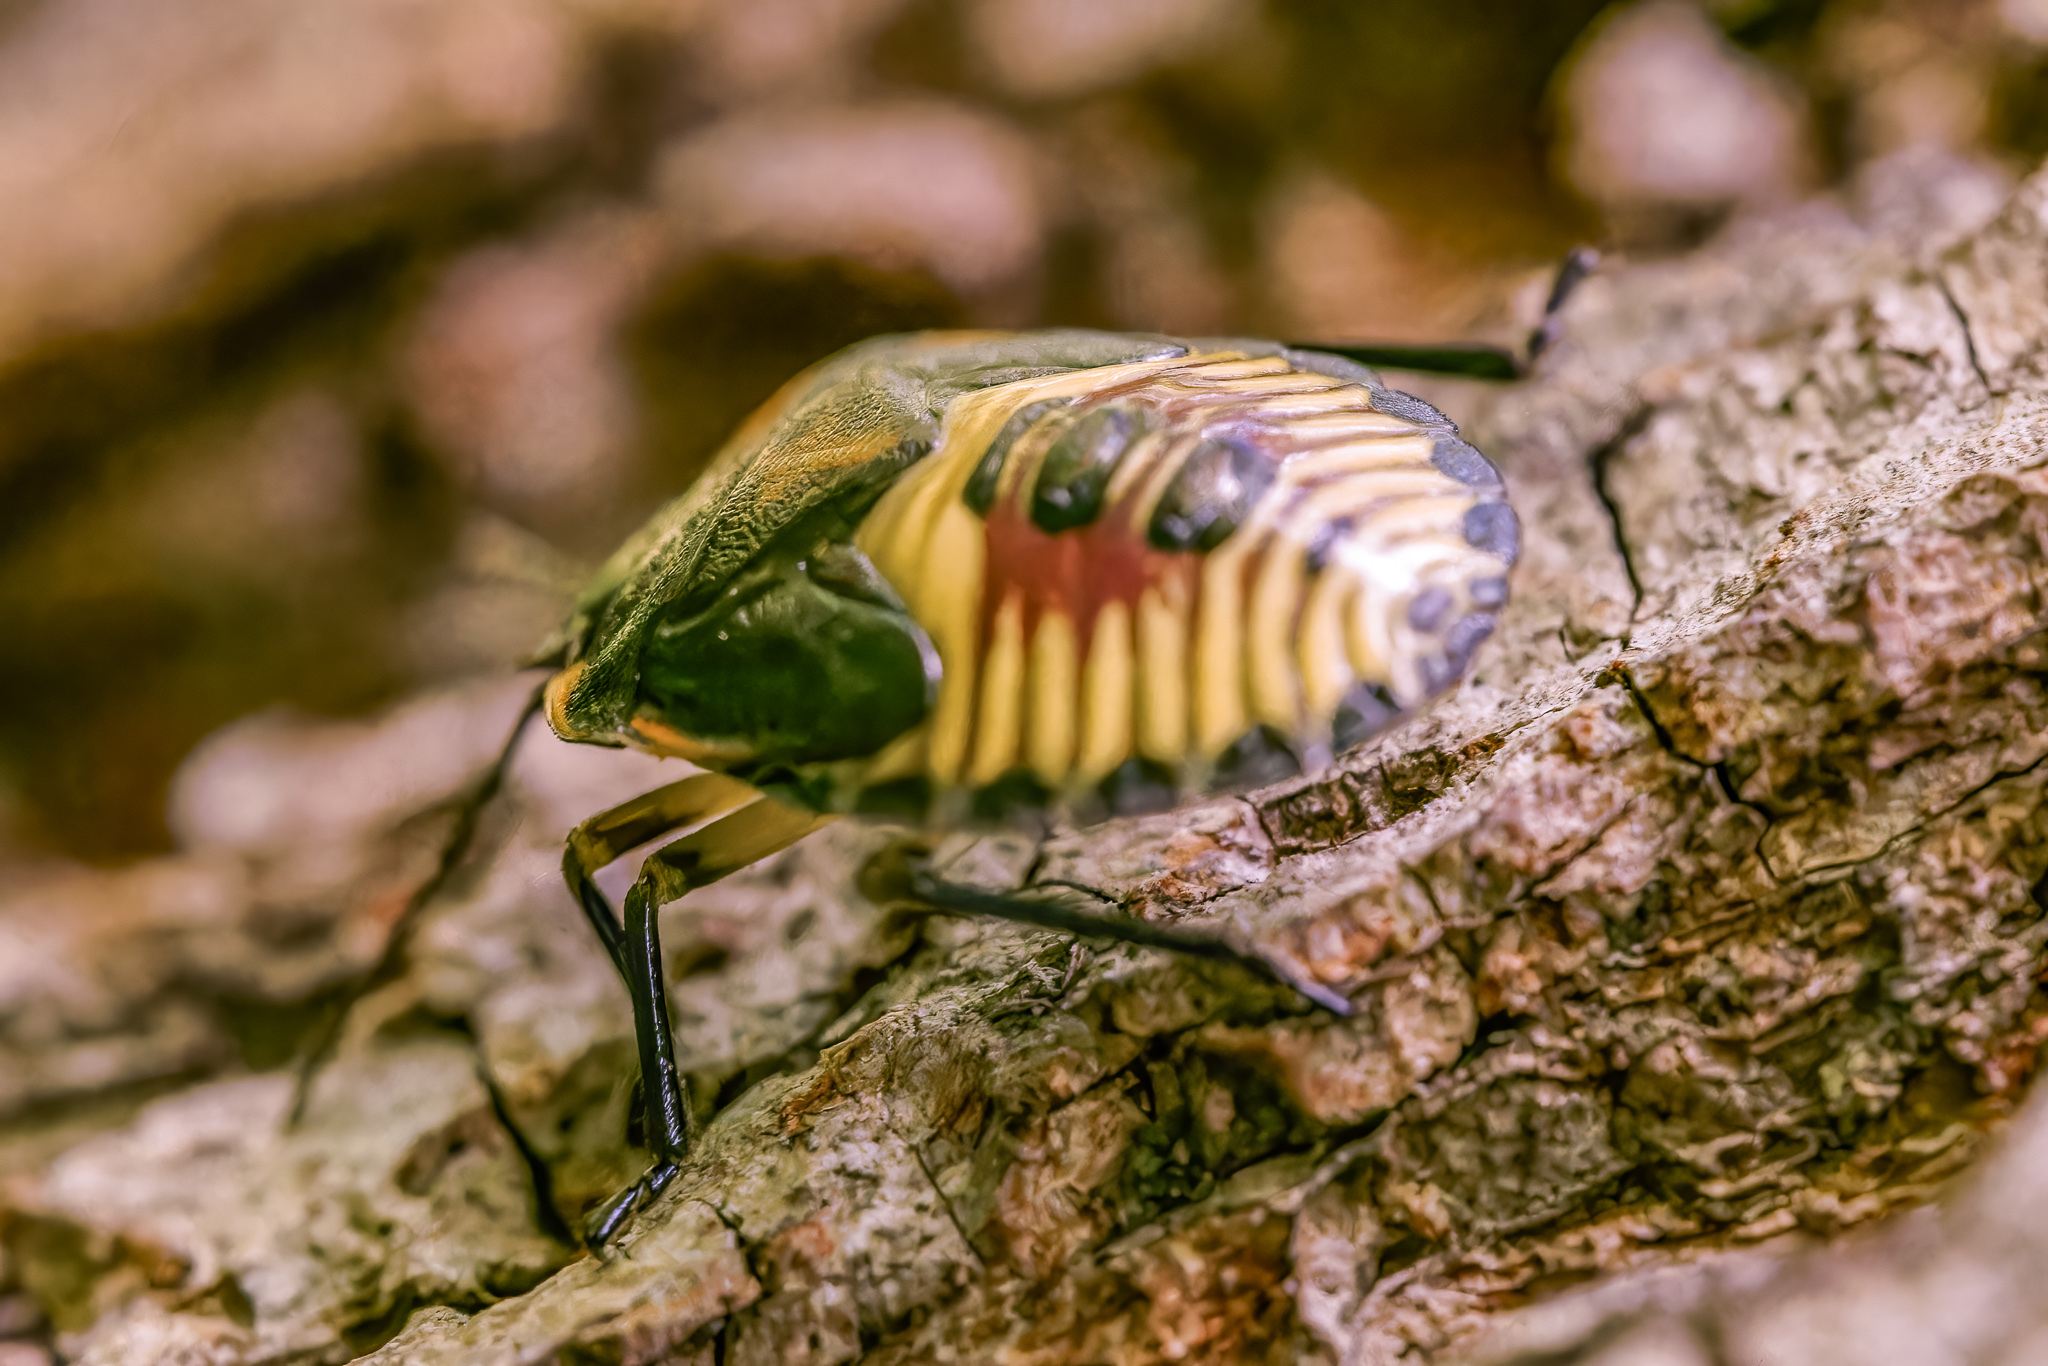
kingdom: Animalia
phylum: Arthropoda
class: Insecta
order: Hemiptera
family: Pentatomidae
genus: Chinavia
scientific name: Chinavia hilaris
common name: Green stink bug
